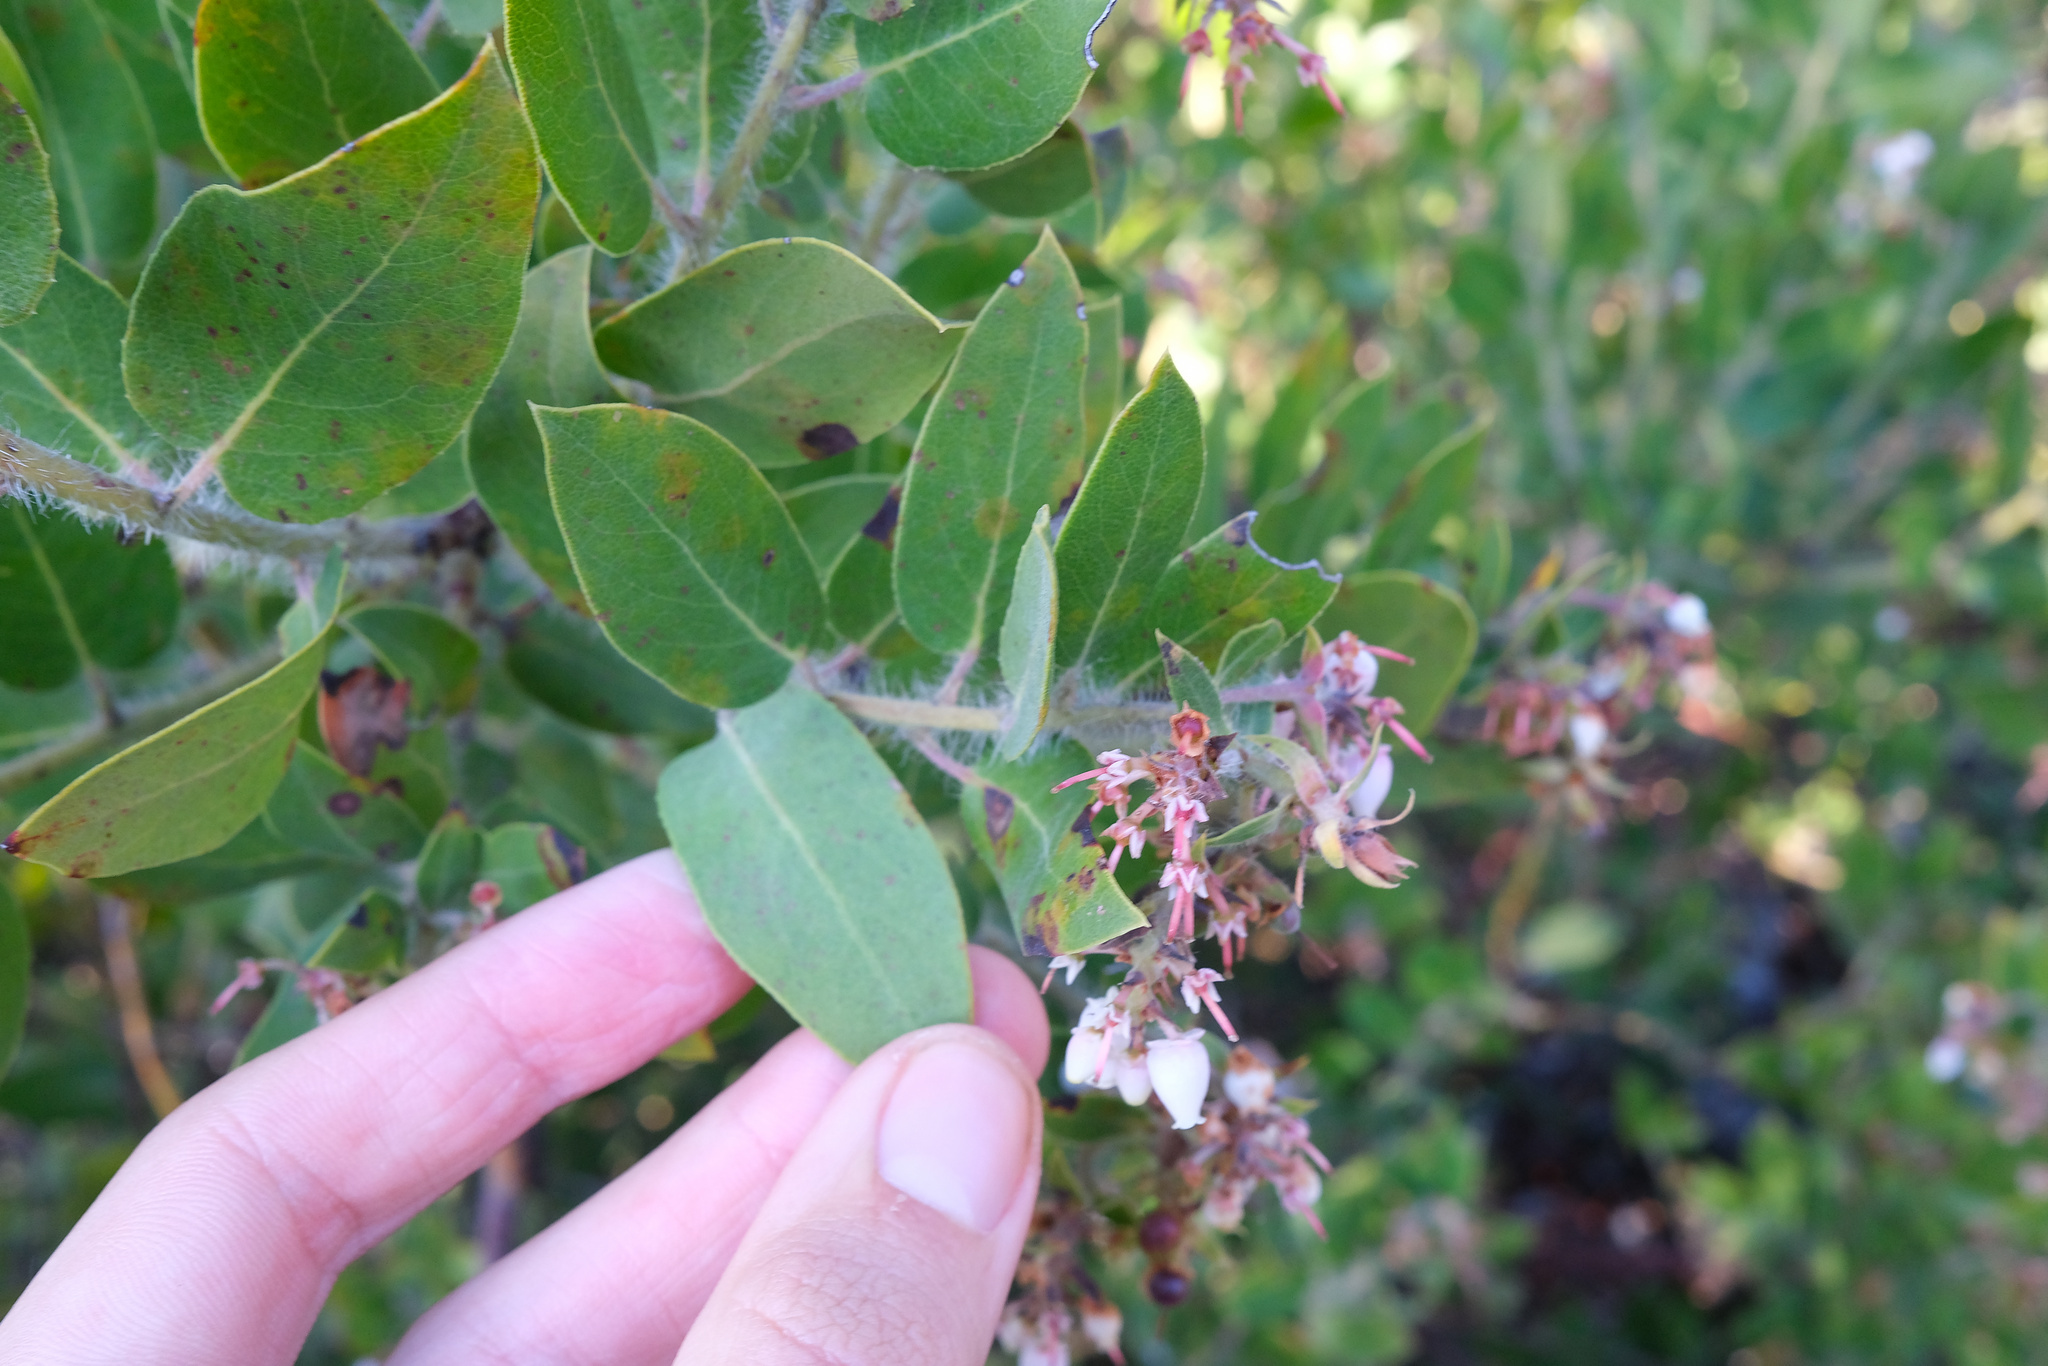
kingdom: Plantae
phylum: Tracheophyta
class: Magnoliopsida
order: Ericales
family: Ericaceae
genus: Arctostaphylos
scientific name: Arctostaphylos crustacea
